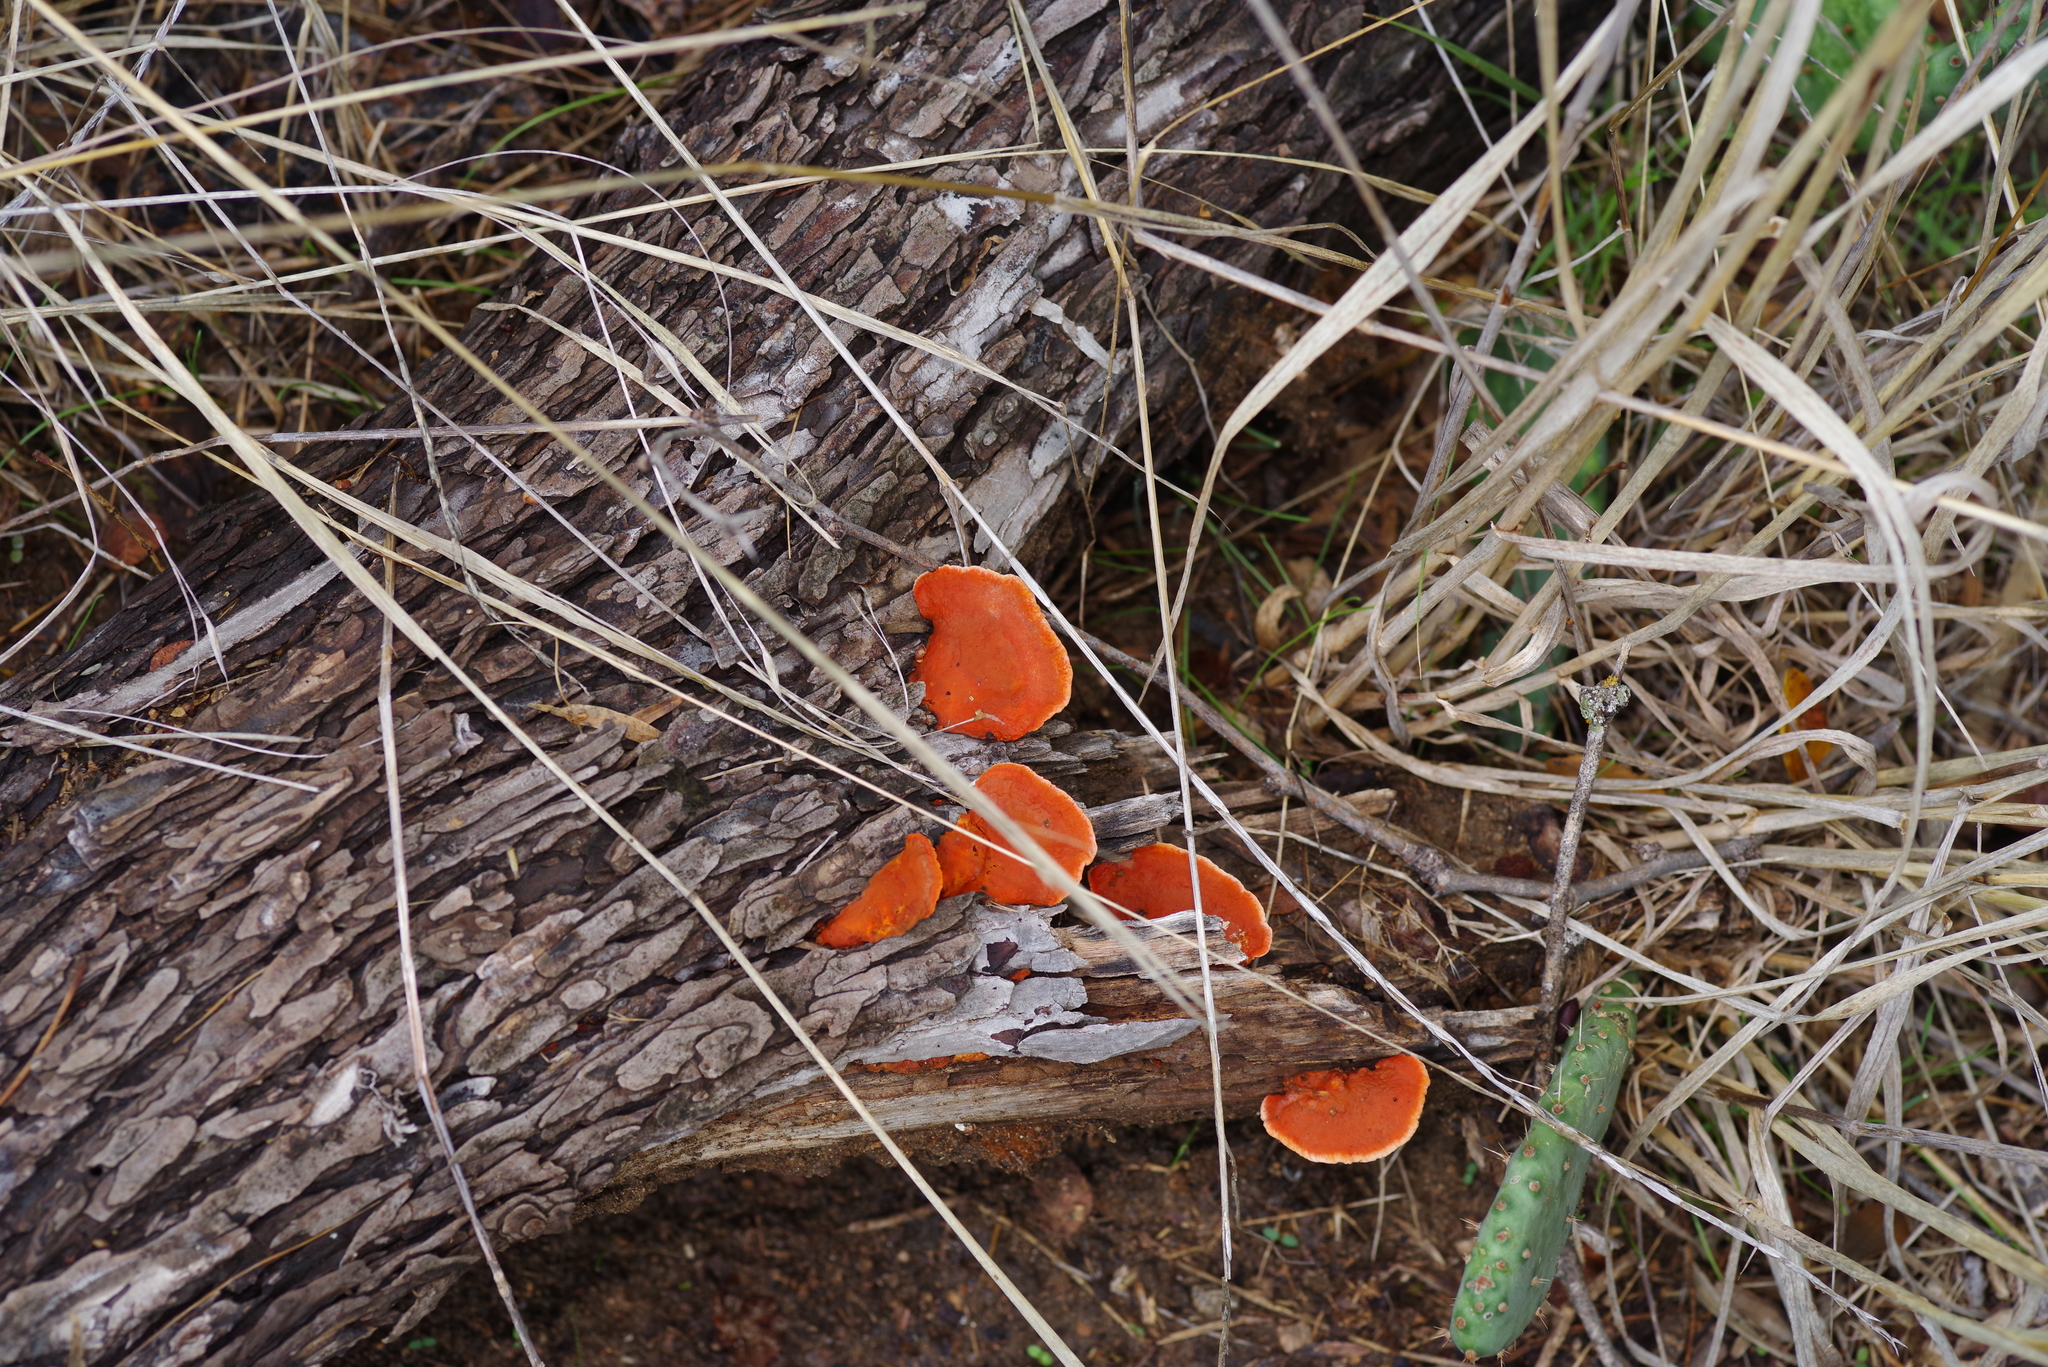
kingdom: Fungi
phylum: Basidiomycota
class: Agaricomycetes
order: Polyporales
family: Polyporaceae
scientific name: Polyporaceae
